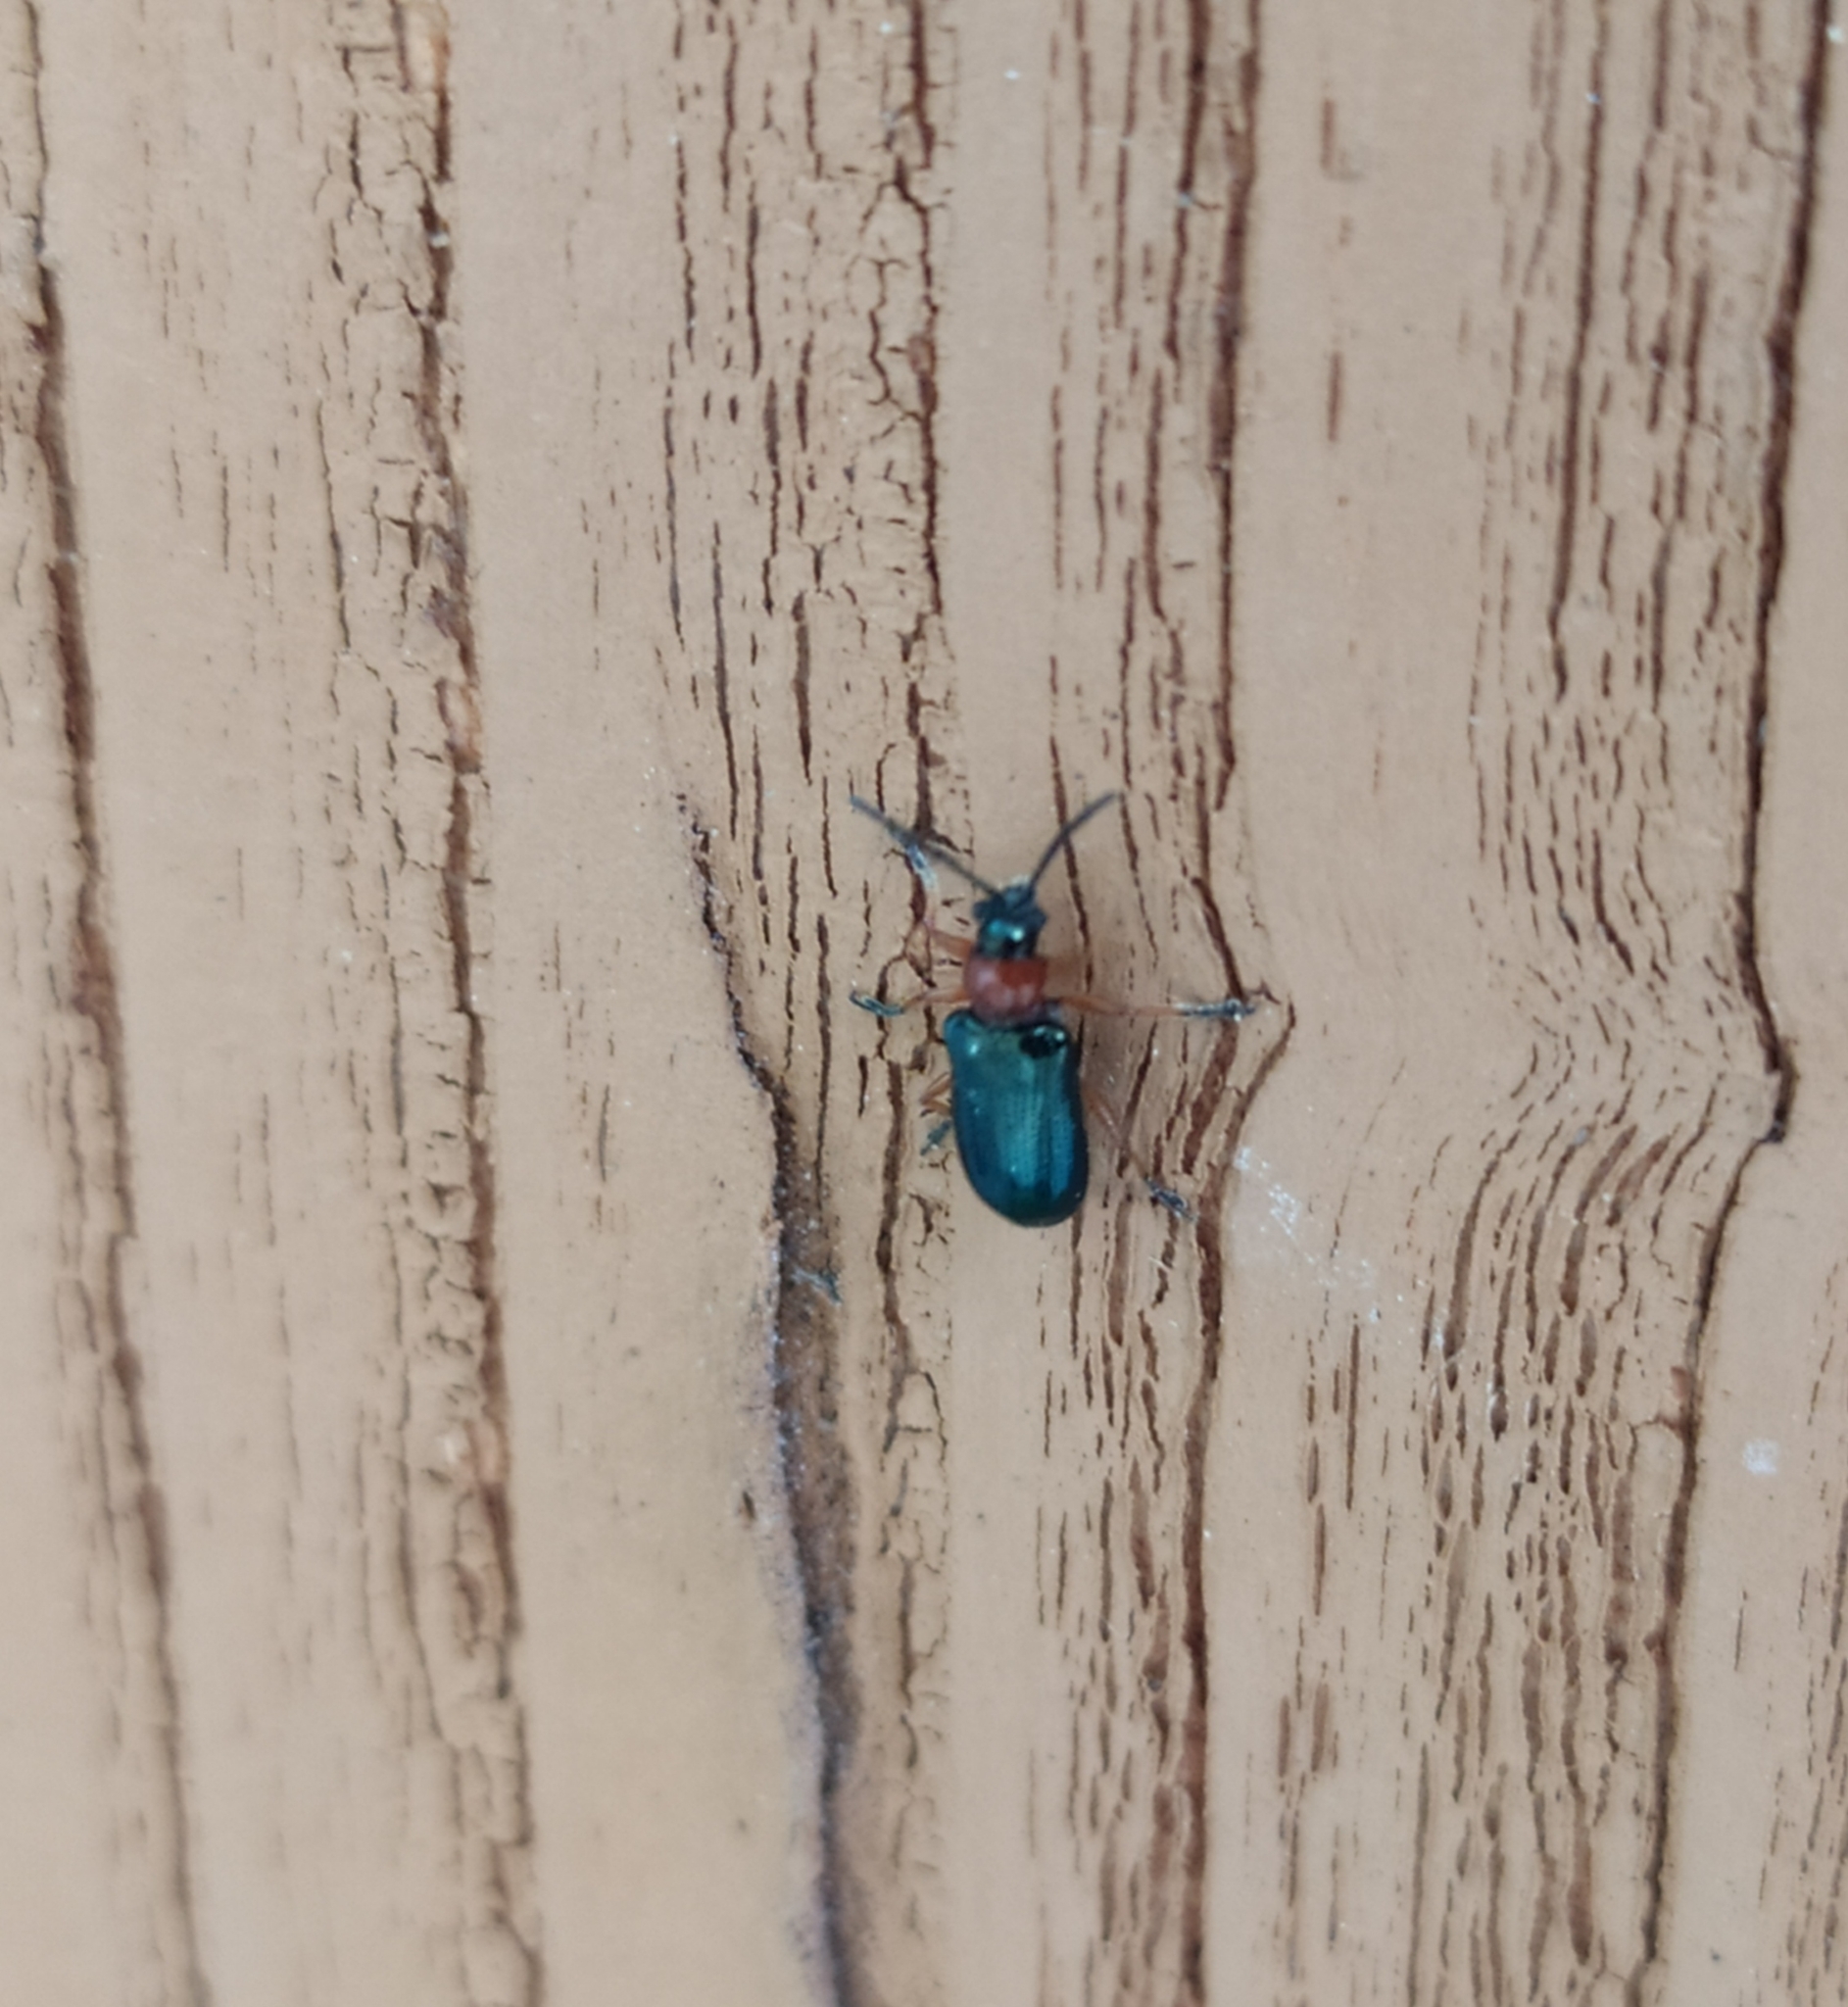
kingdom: Animalia
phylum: Arthropoda
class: Insecta
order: Coleoptera
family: Chrysomelidae
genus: Oulema
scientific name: Oulema
